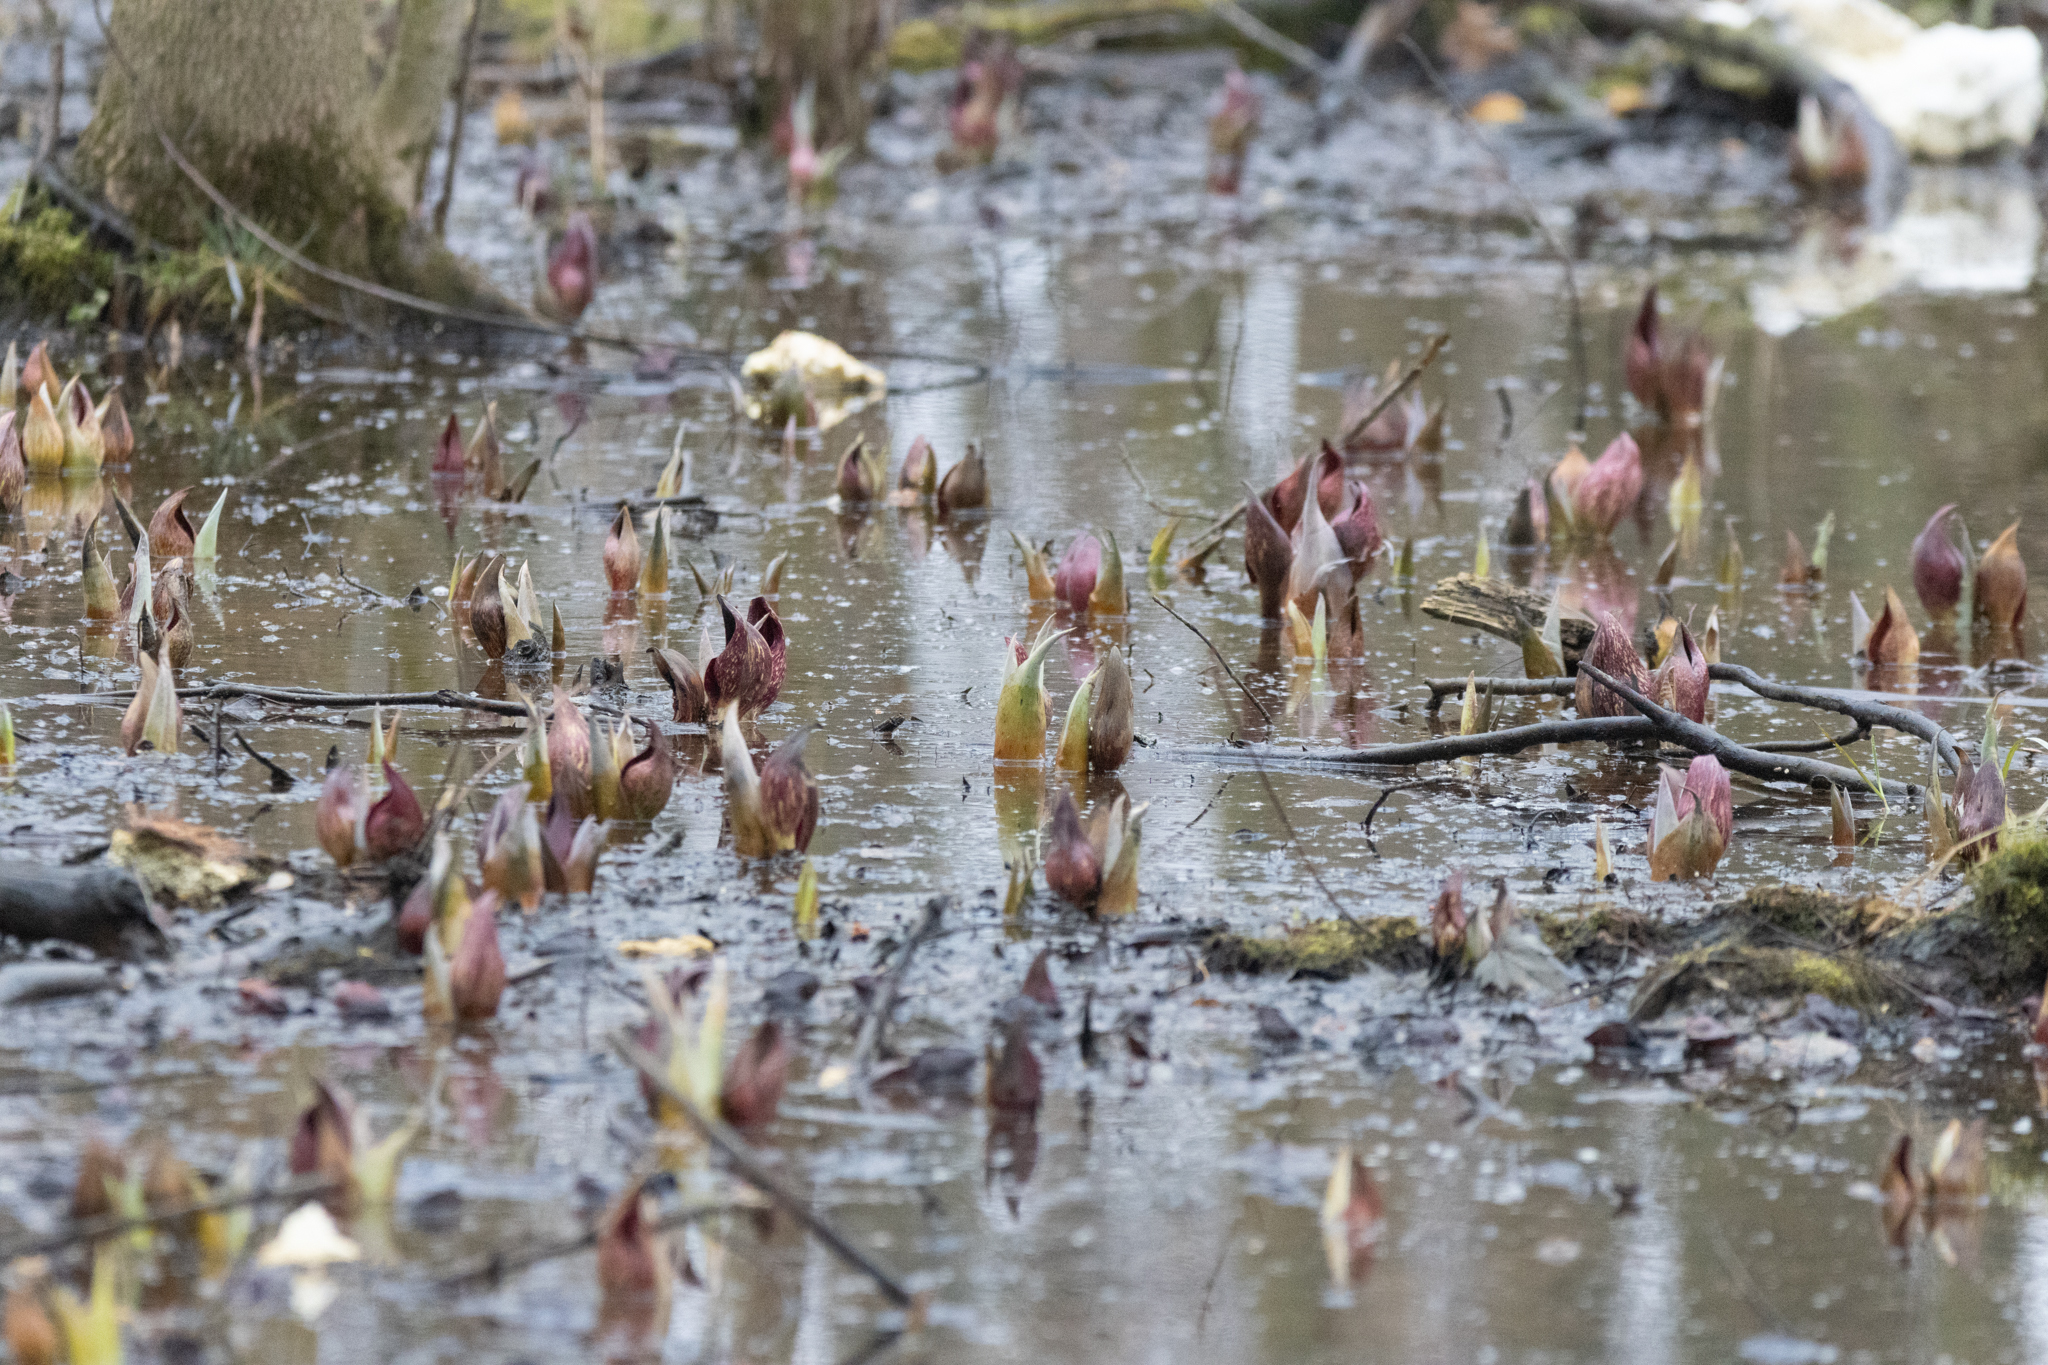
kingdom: Plantae
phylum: Tracheophyta
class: Liliopsida
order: Alismatales
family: Araceae
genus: Symplocarpus
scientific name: Symplocarpus foetidus
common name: Eastern skunk cabbage
